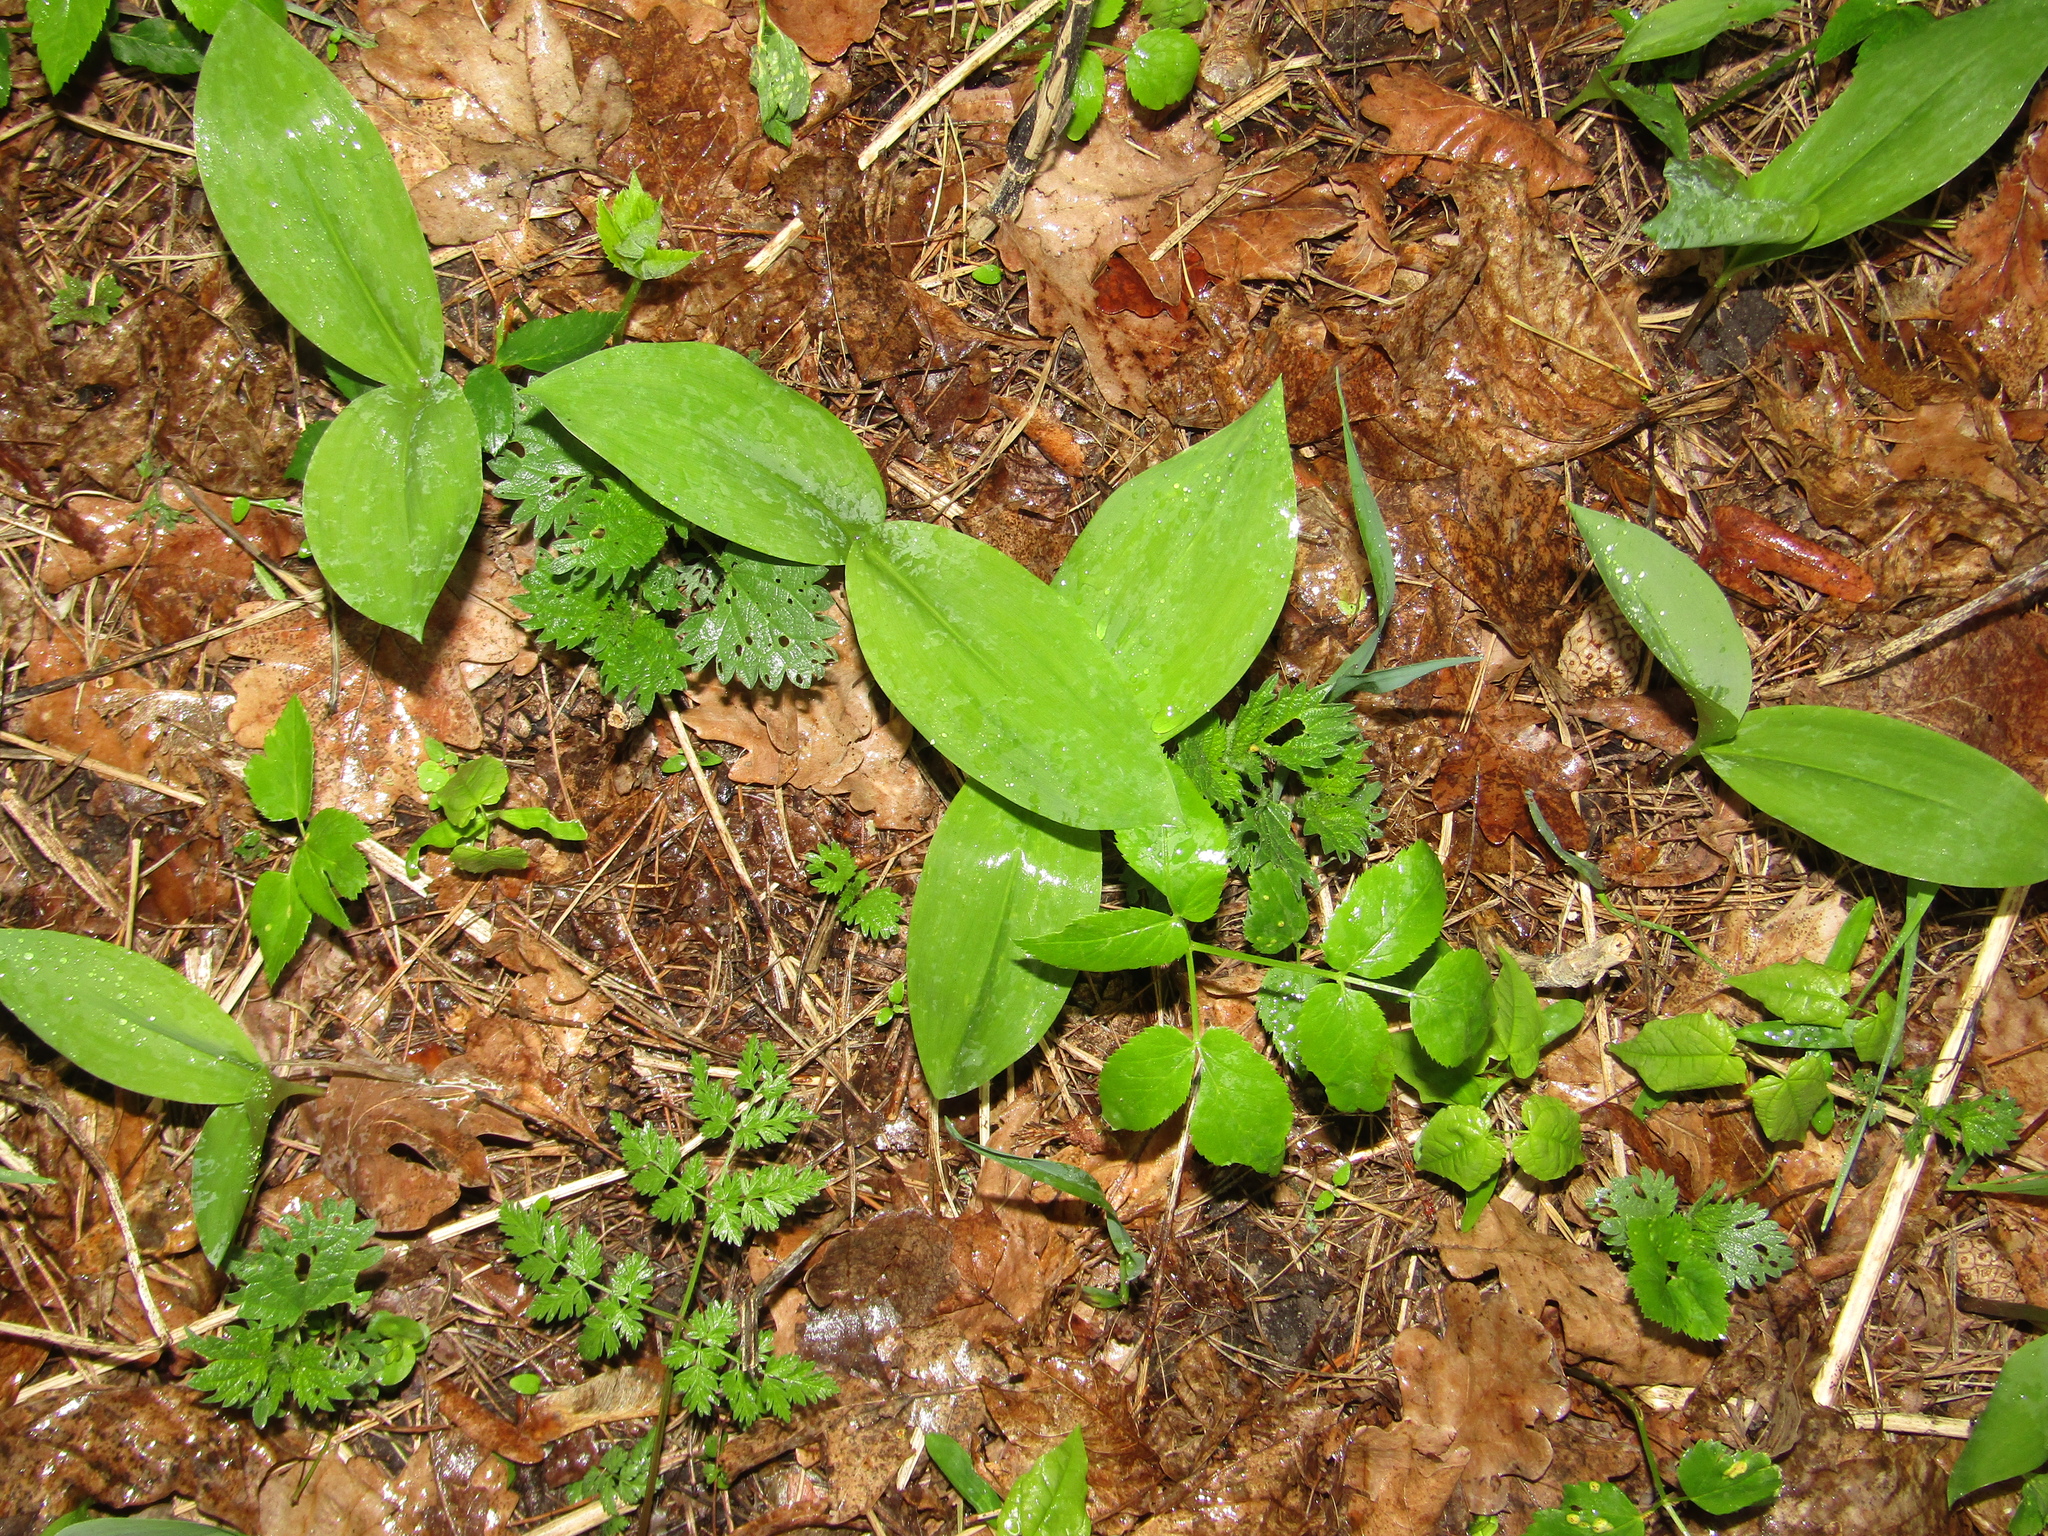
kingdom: Plantae
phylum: Tracheophyta
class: Liliopsida
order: Asparagales
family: Asparagaceae
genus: Convallaria
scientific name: Convallaria majalis
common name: Lily-of-the-valley
